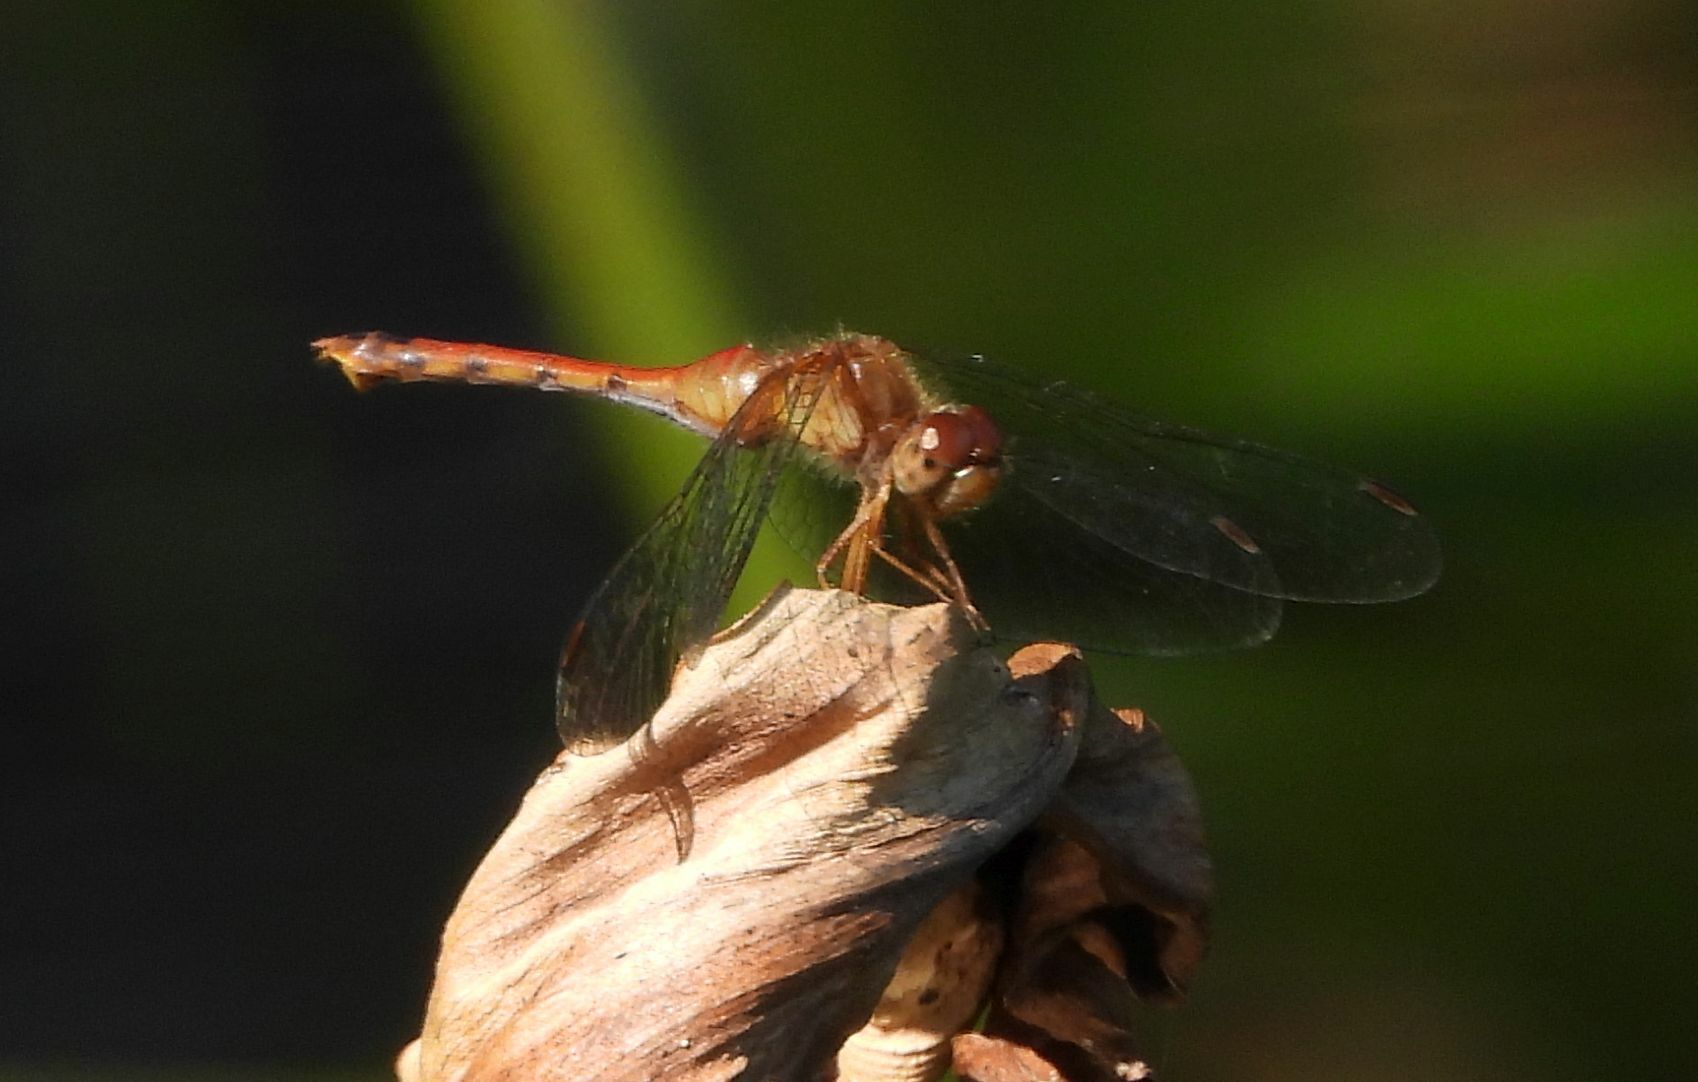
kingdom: Animalia
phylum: Arthropoda
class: Insecta
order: Odonata
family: Libellulidae
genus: Sympetrum
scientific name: Sympetrum vicinum
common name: Autumn meadowhawk
